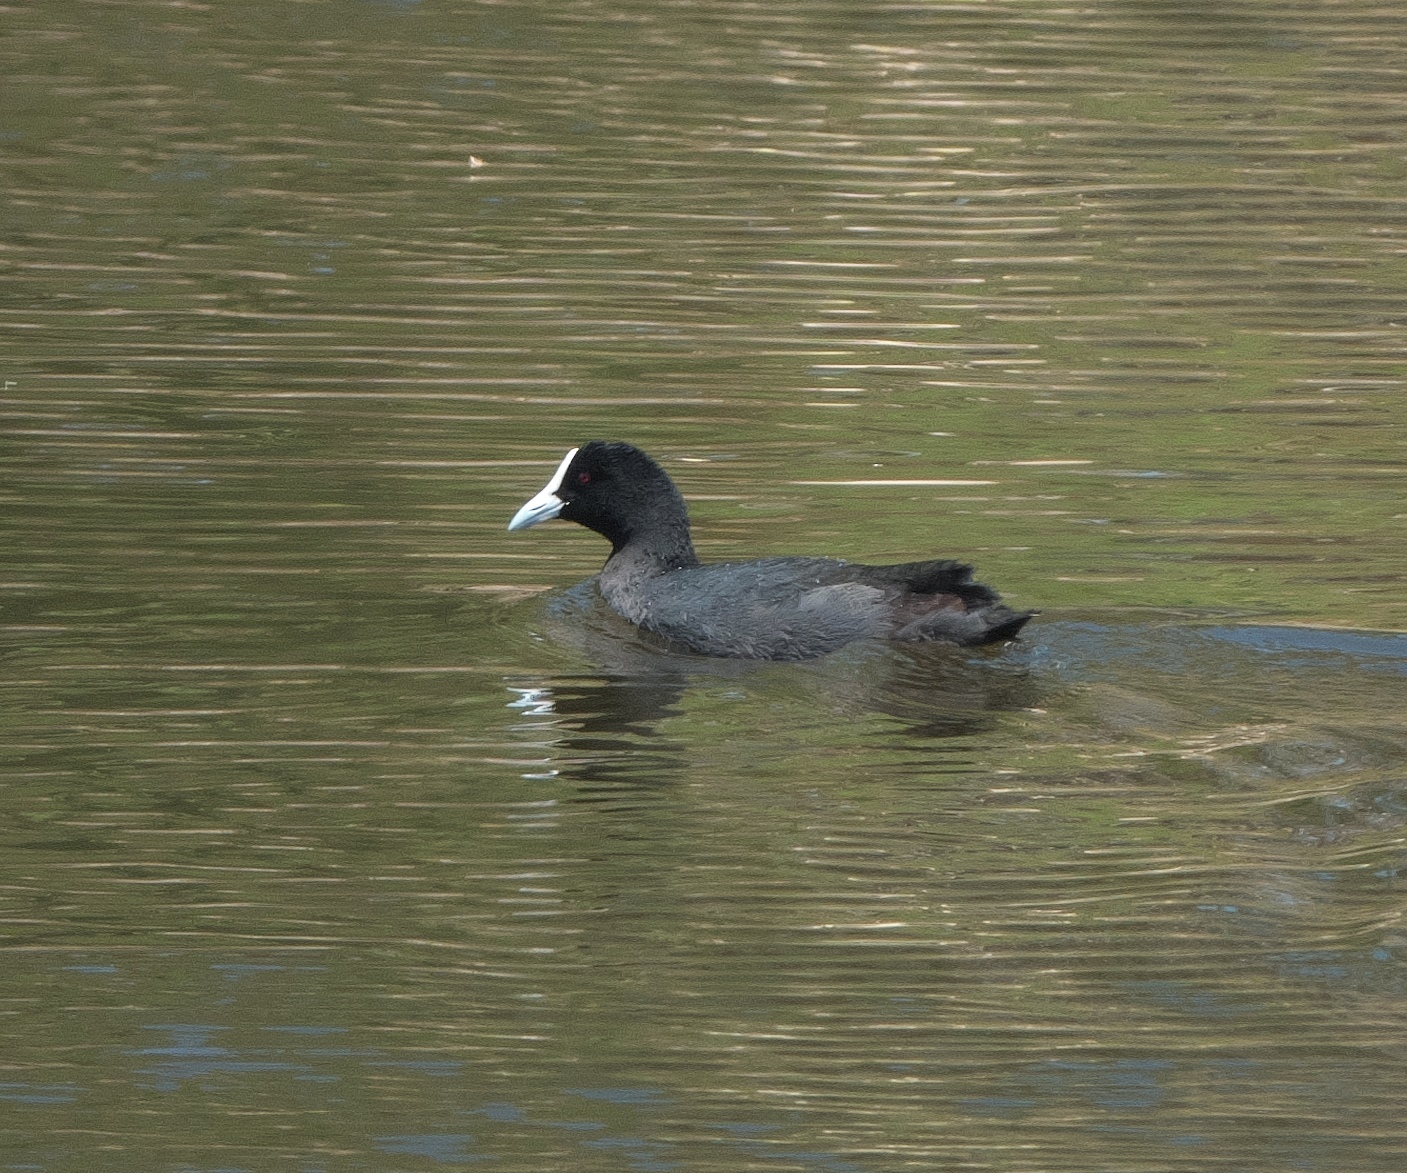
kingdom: Animalia
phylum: Chordata
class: Aves
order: Gruiformes
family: Rallidae
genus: Fulica
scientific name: Fulica atra
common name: Eurasian coot
